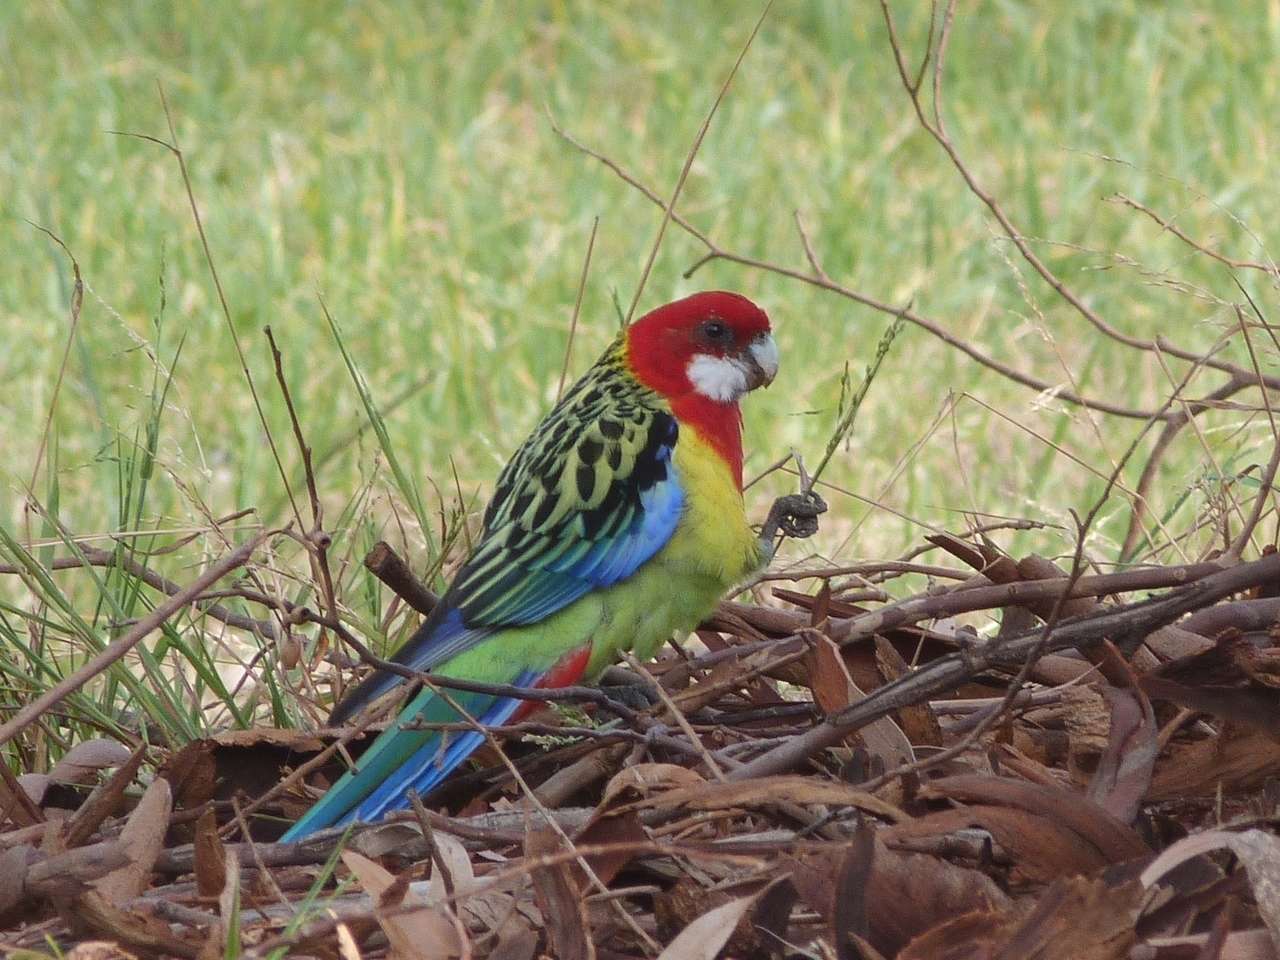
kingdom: Animalia
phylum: Chordata
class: Aves
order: Psittaciformes
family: Psittacidae
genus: Platycercus
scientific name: Platycercus eximius
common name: Eastern rosella
